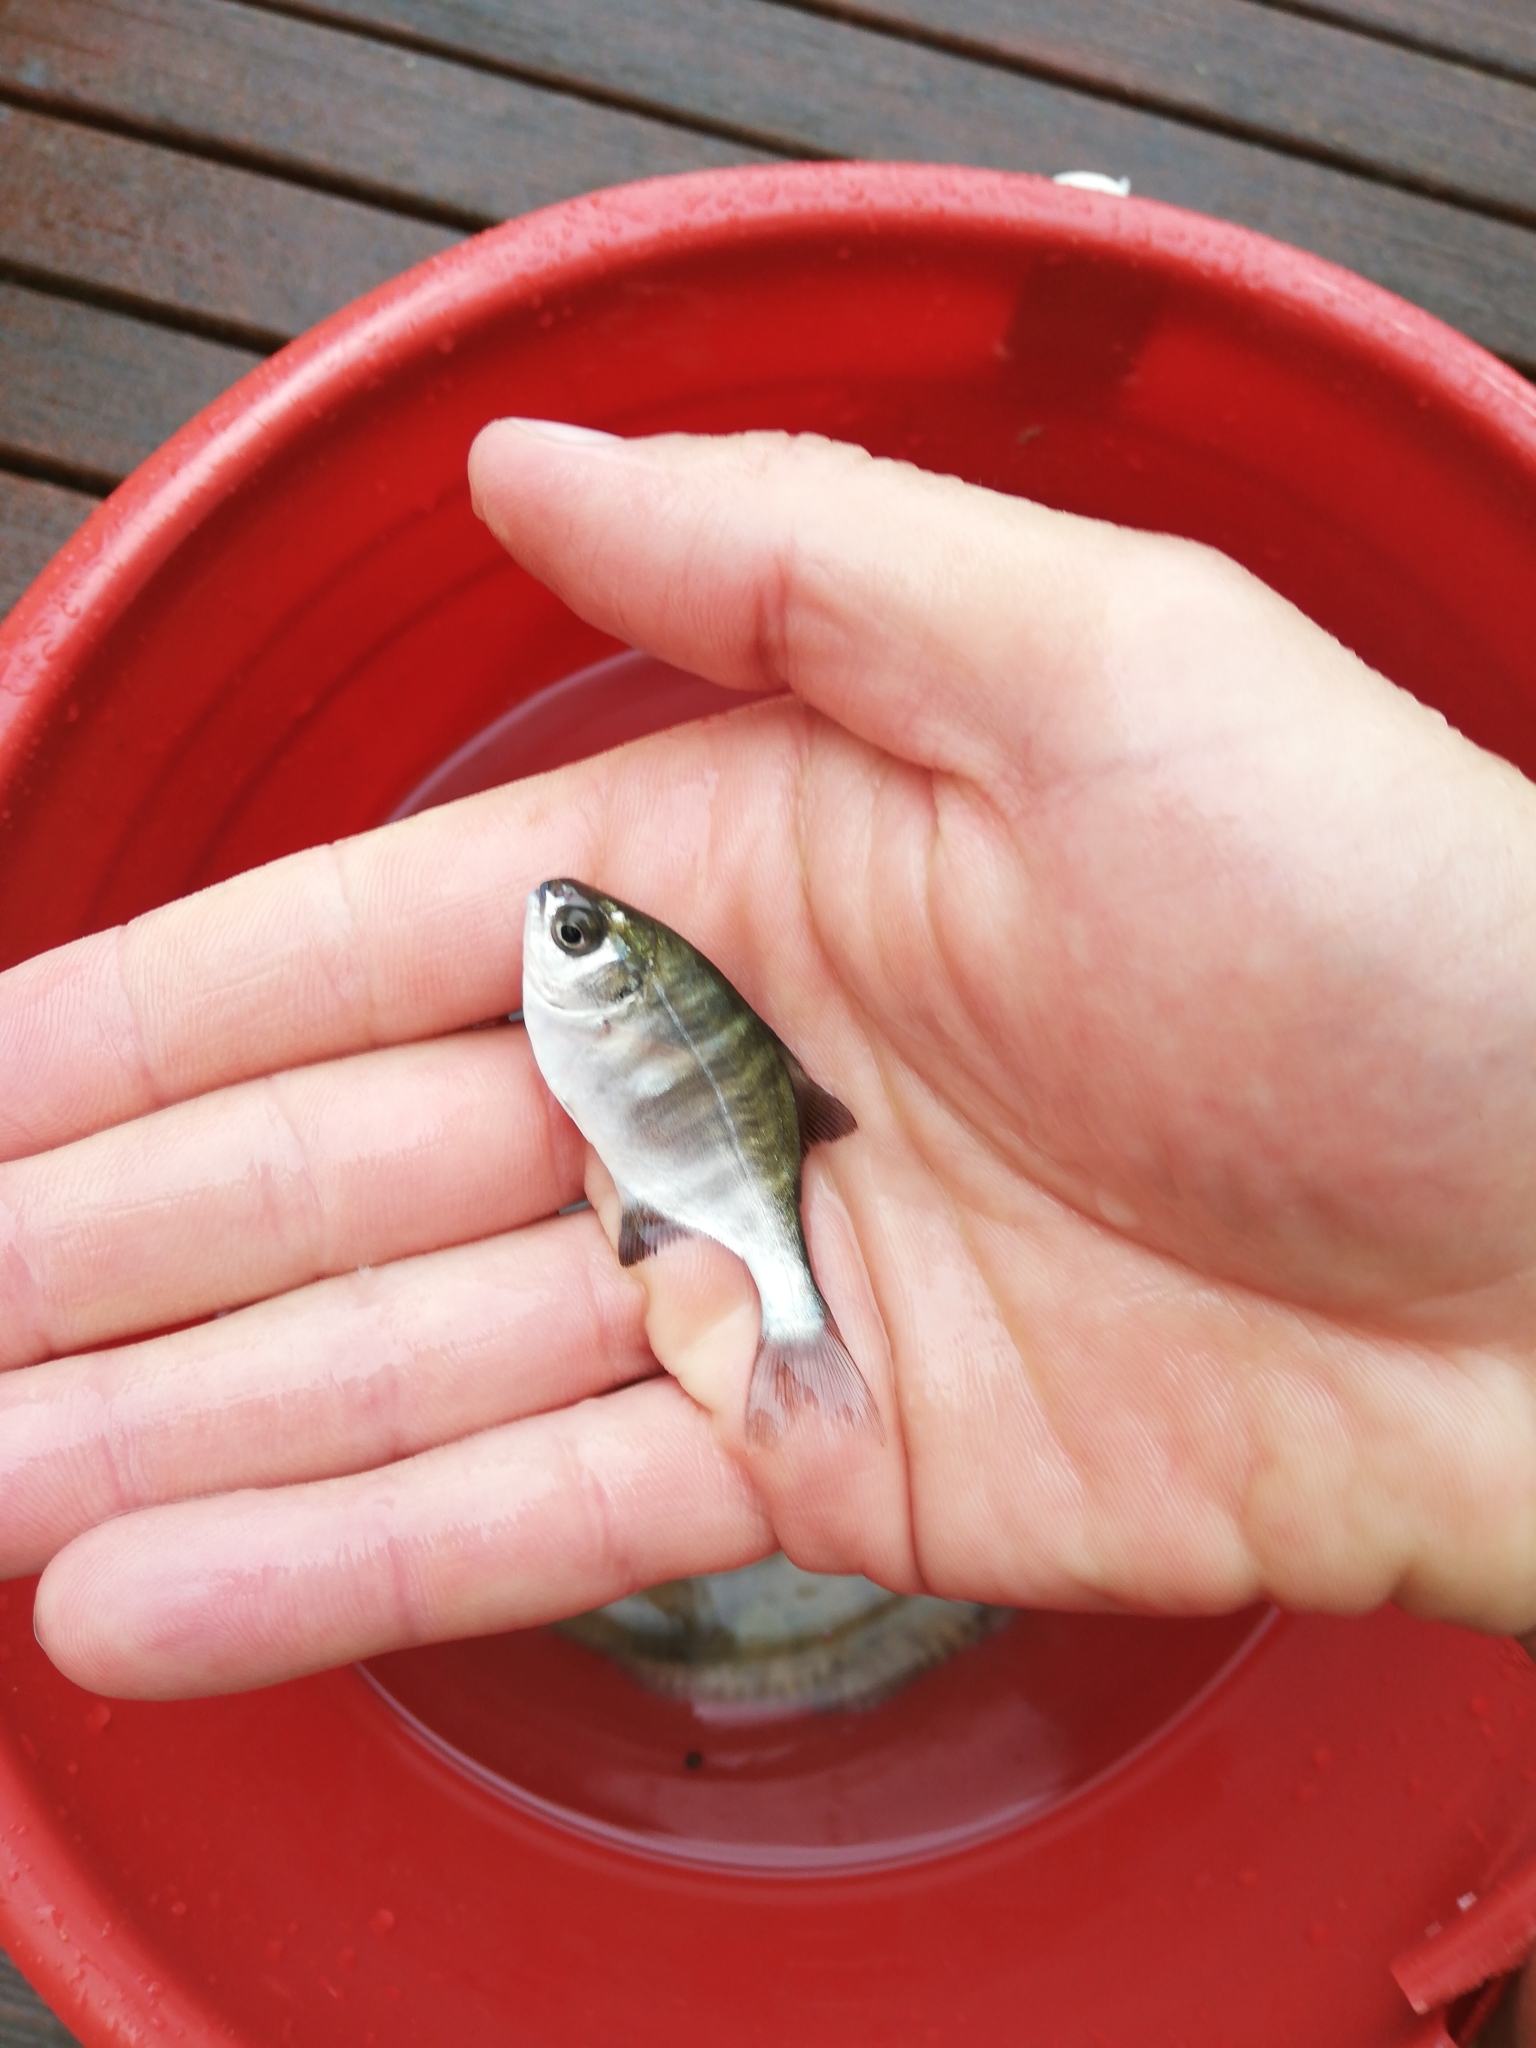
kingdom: Animalia
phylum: Chordata
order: Perciformes
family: Kyphosidae
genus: Neoscorpis
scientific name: Neoscorpis lithophilus
